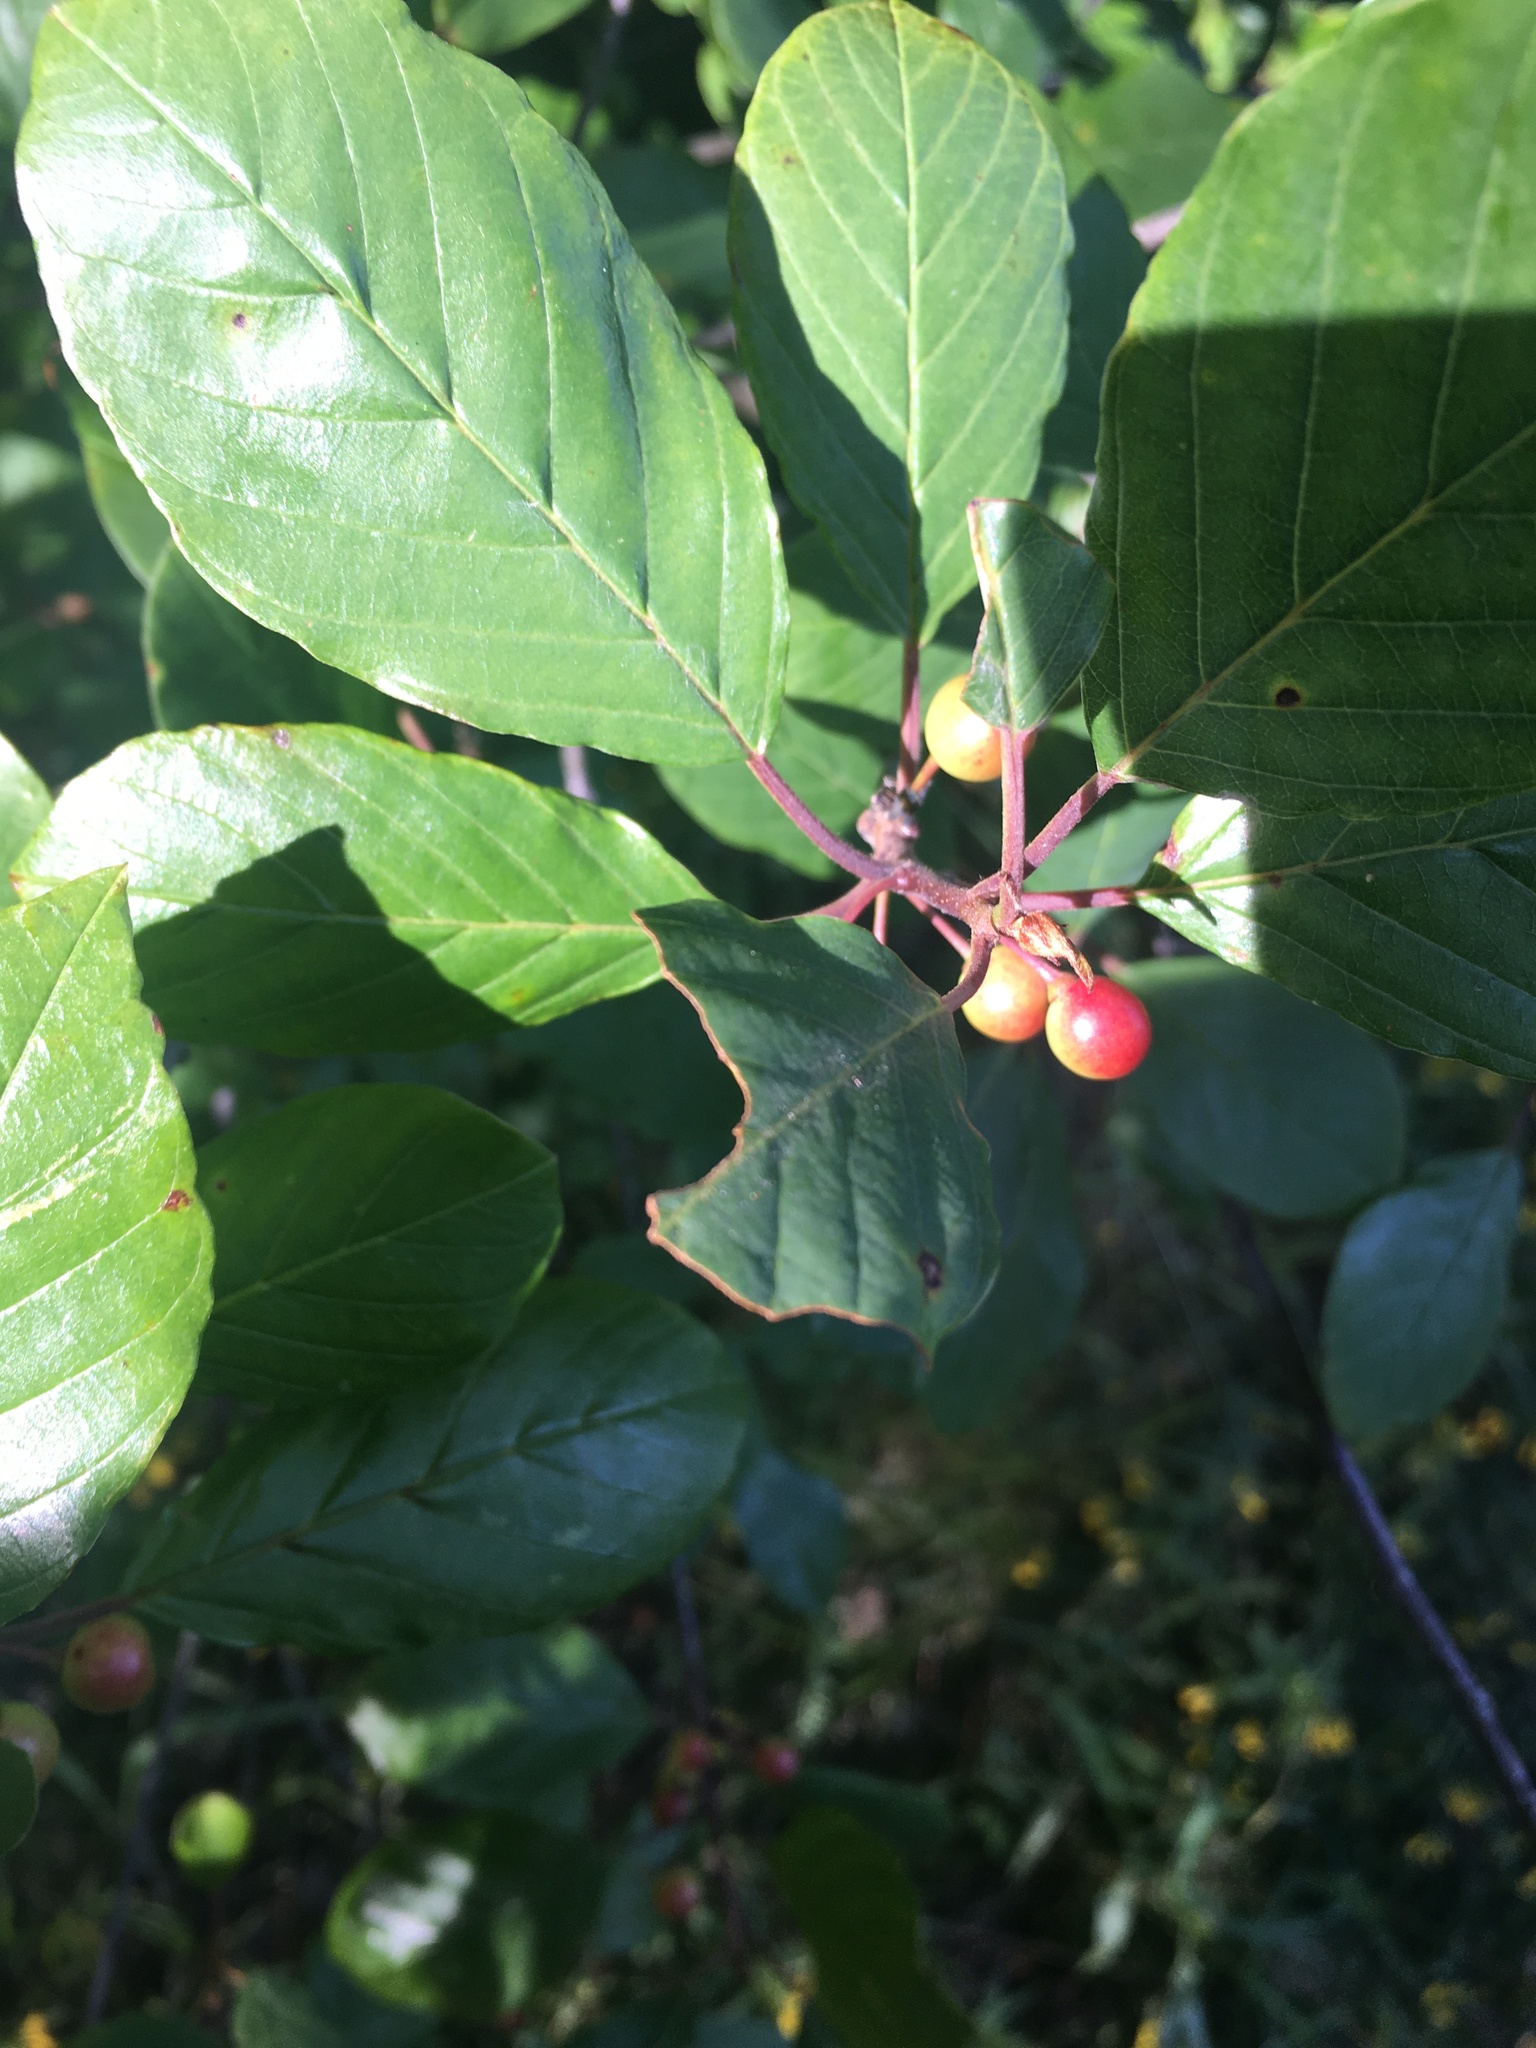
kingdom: Plantae
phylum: Tracheophyta
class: Magnoliopsida
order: Rosales
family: Rhamnaceae
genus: Frangula
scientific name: Frangula alnus
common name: Alder buckthorn
